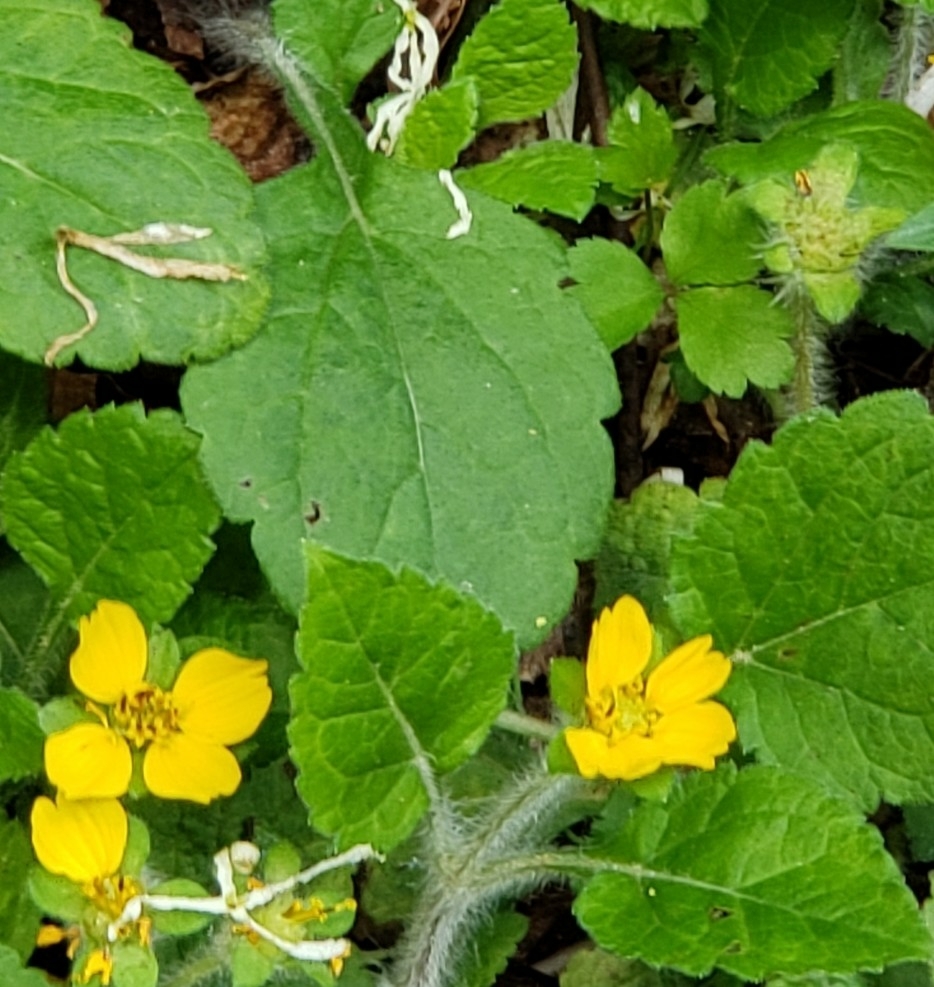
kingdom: Plantae
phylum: Tracheophyta
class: Magnoliopsida
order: Asterales
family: Asteraceae
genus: Chrysogonum
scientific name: Chrysogonum virginianum
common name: Golden-knee
